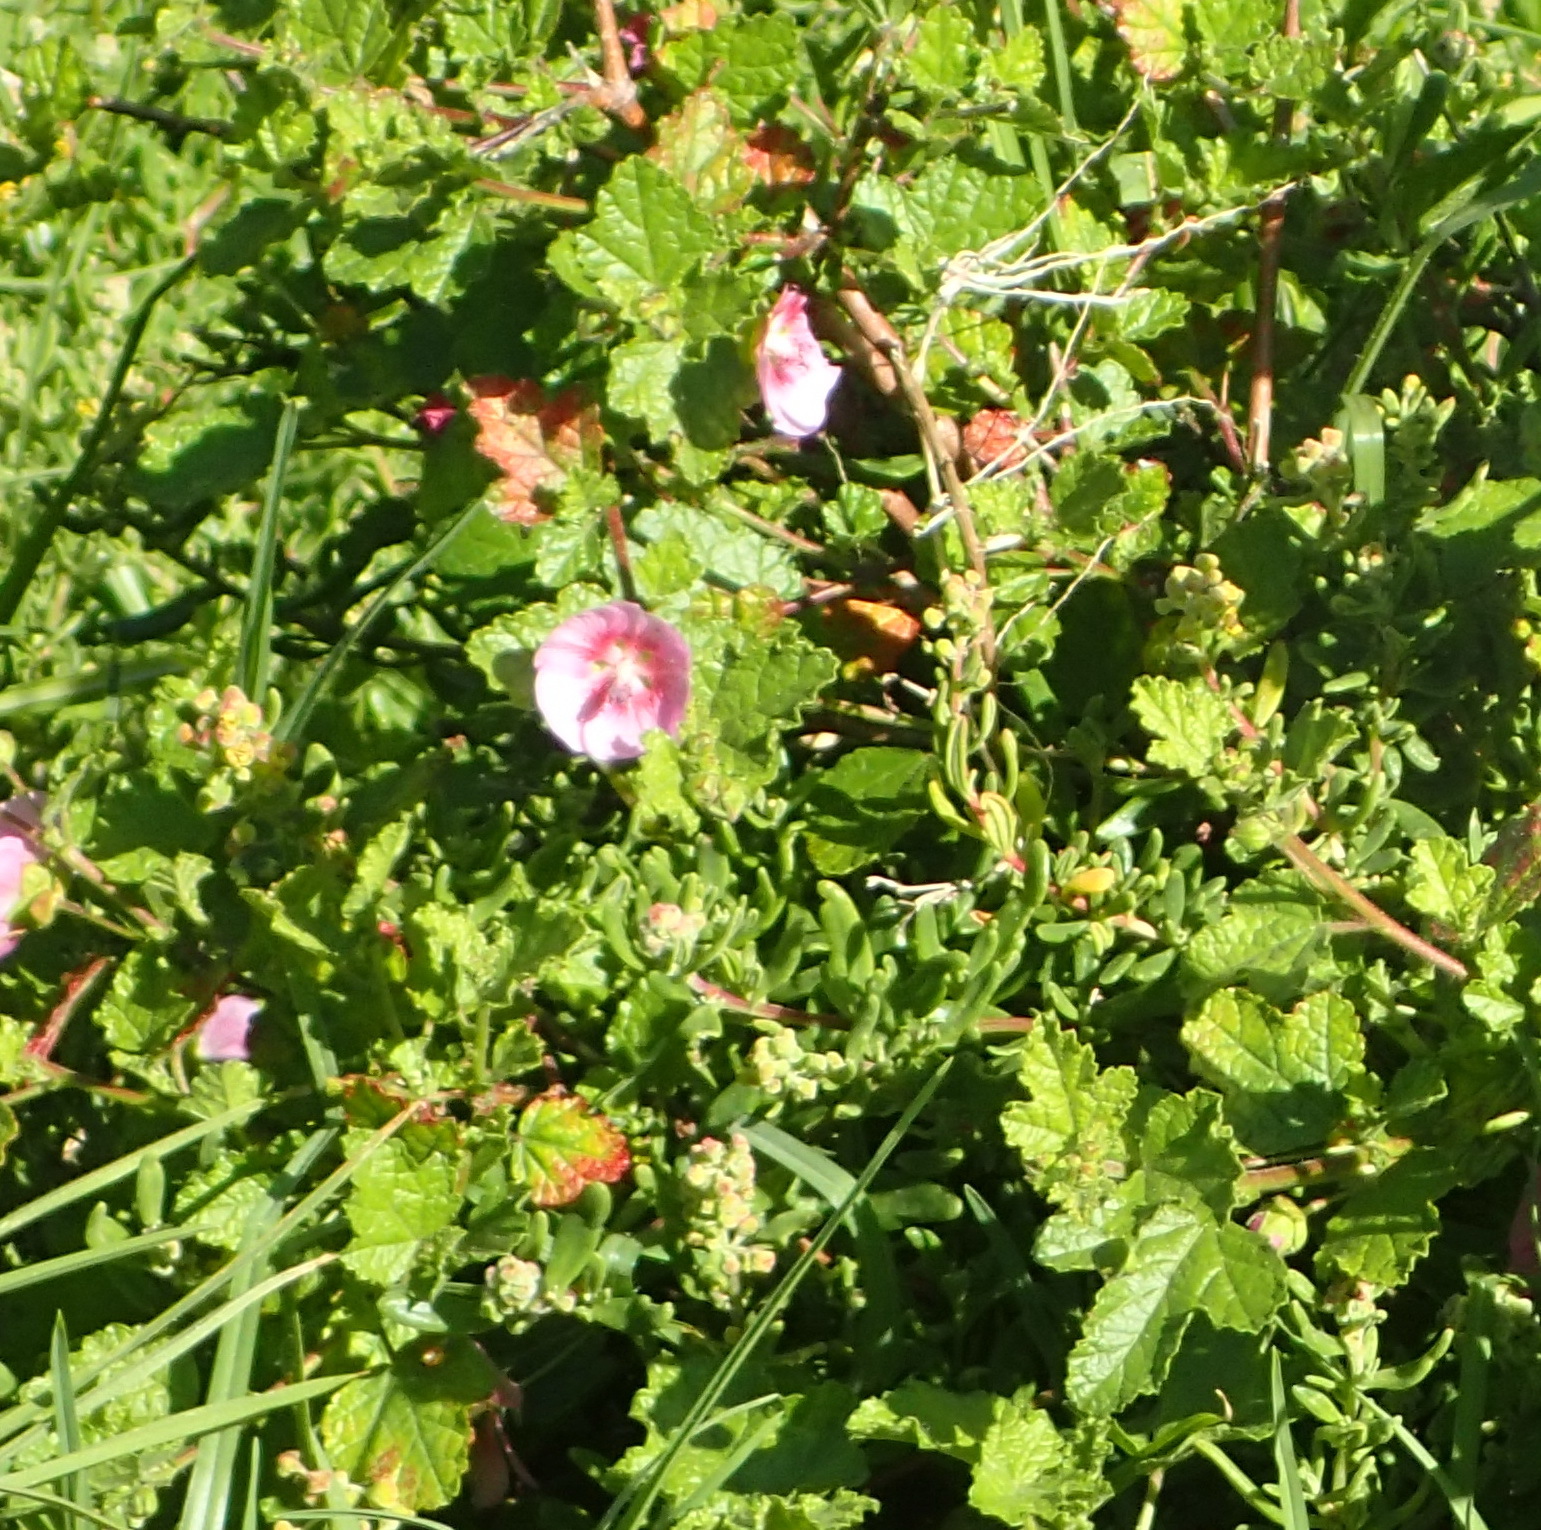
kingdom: Plantae
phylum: Tracheophyta
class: Magnoliopsida
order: Malvales
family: Malvaceae
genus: Anisodontea
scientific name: Anisodontea scabrosa
